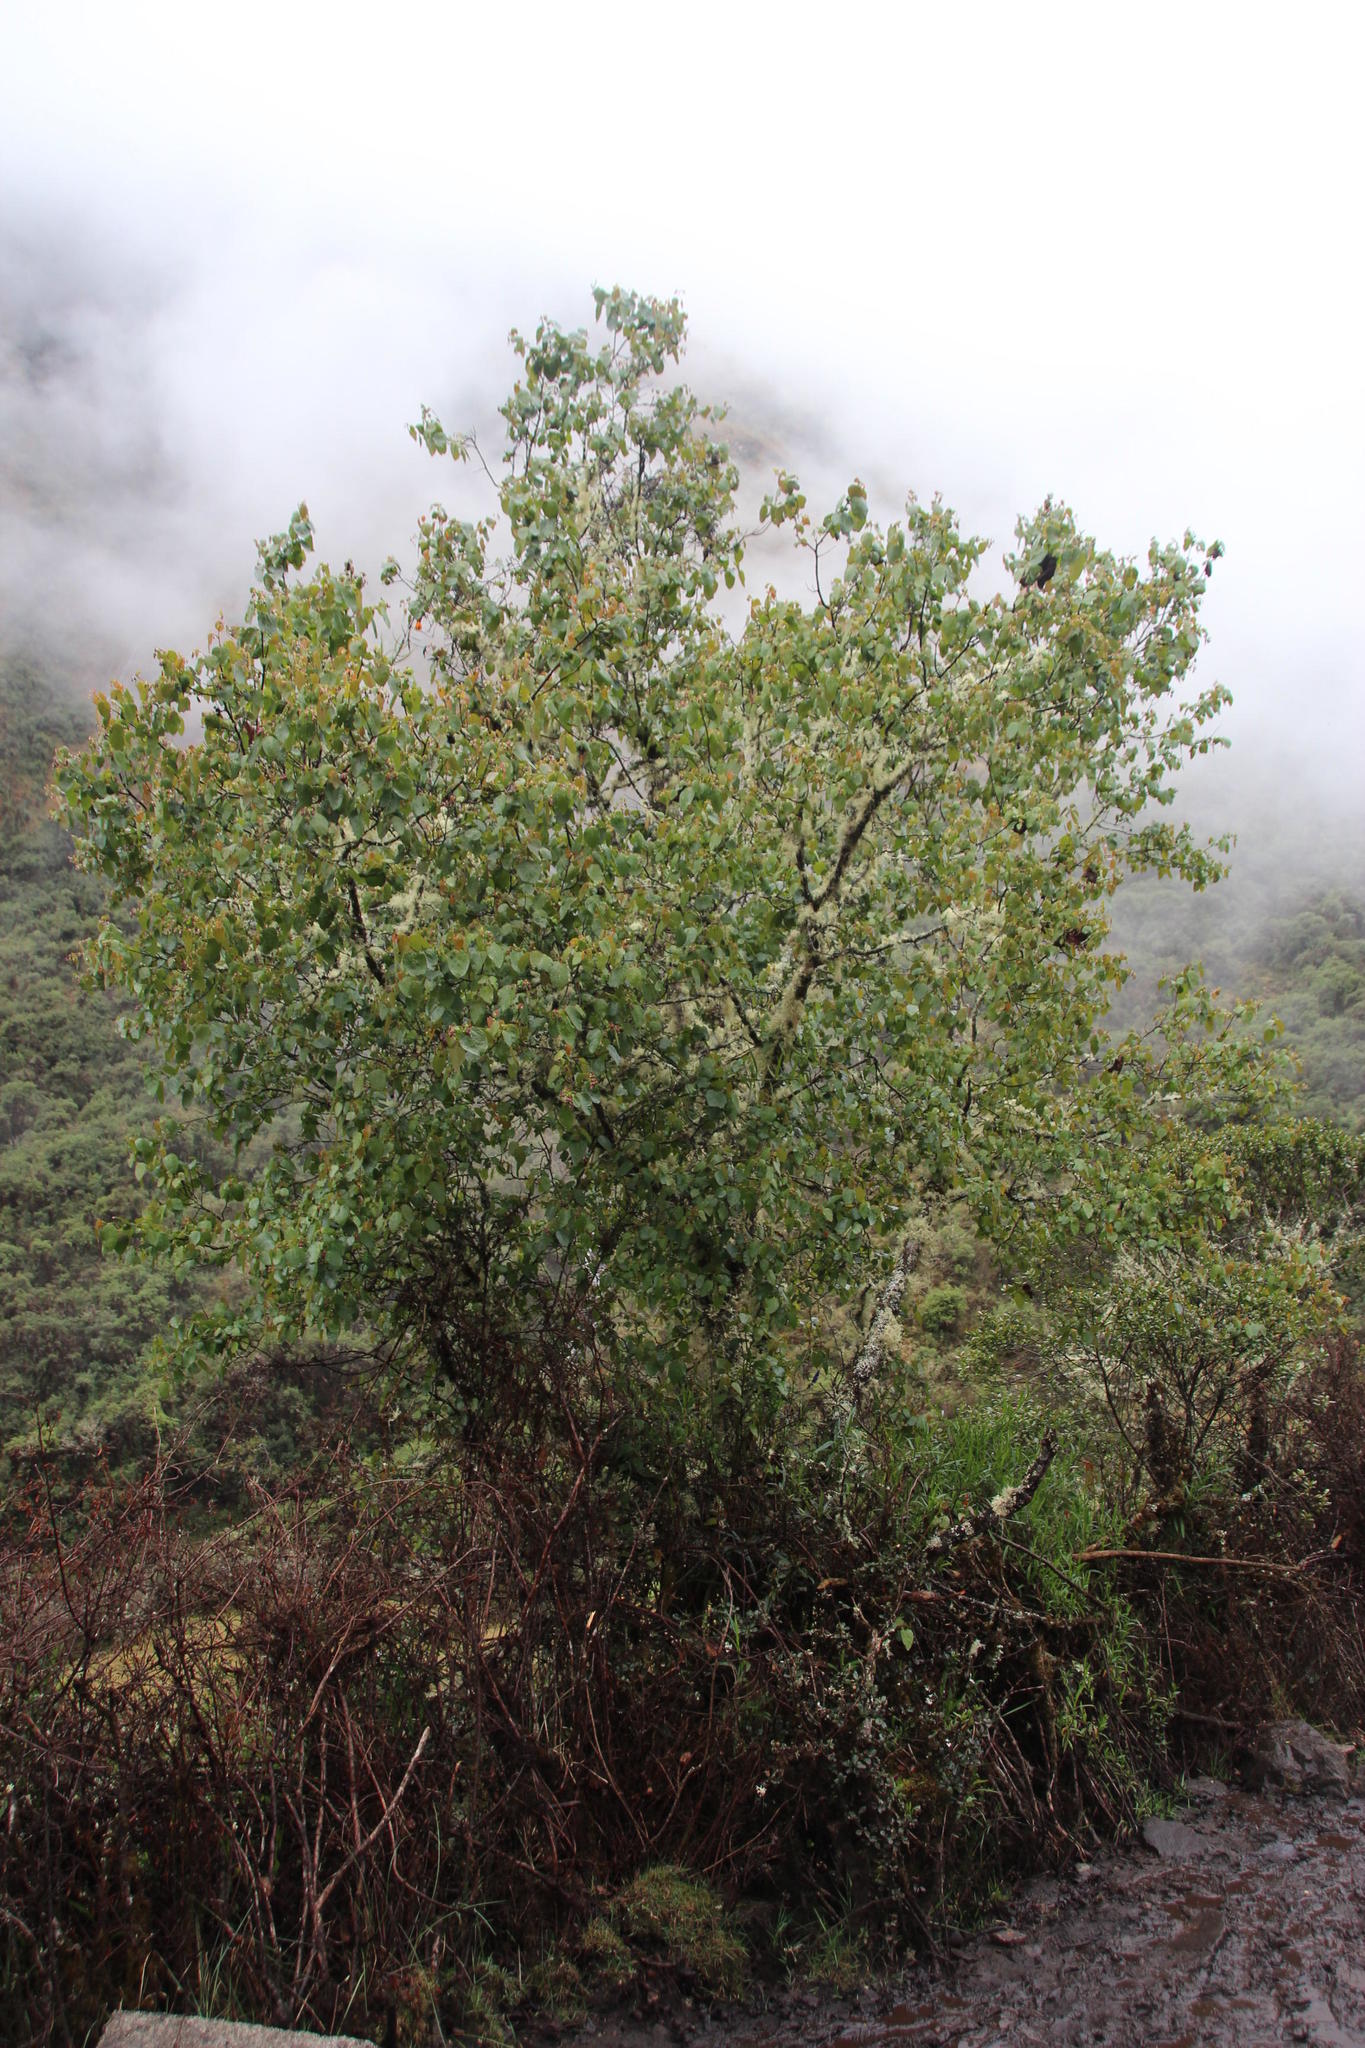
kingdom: Plantae
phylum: Tracheophyta
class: Magnoliopsida
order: Oxalidales
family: Elaeocarpaceae
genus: Vallea
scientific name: Vallea stipularis
